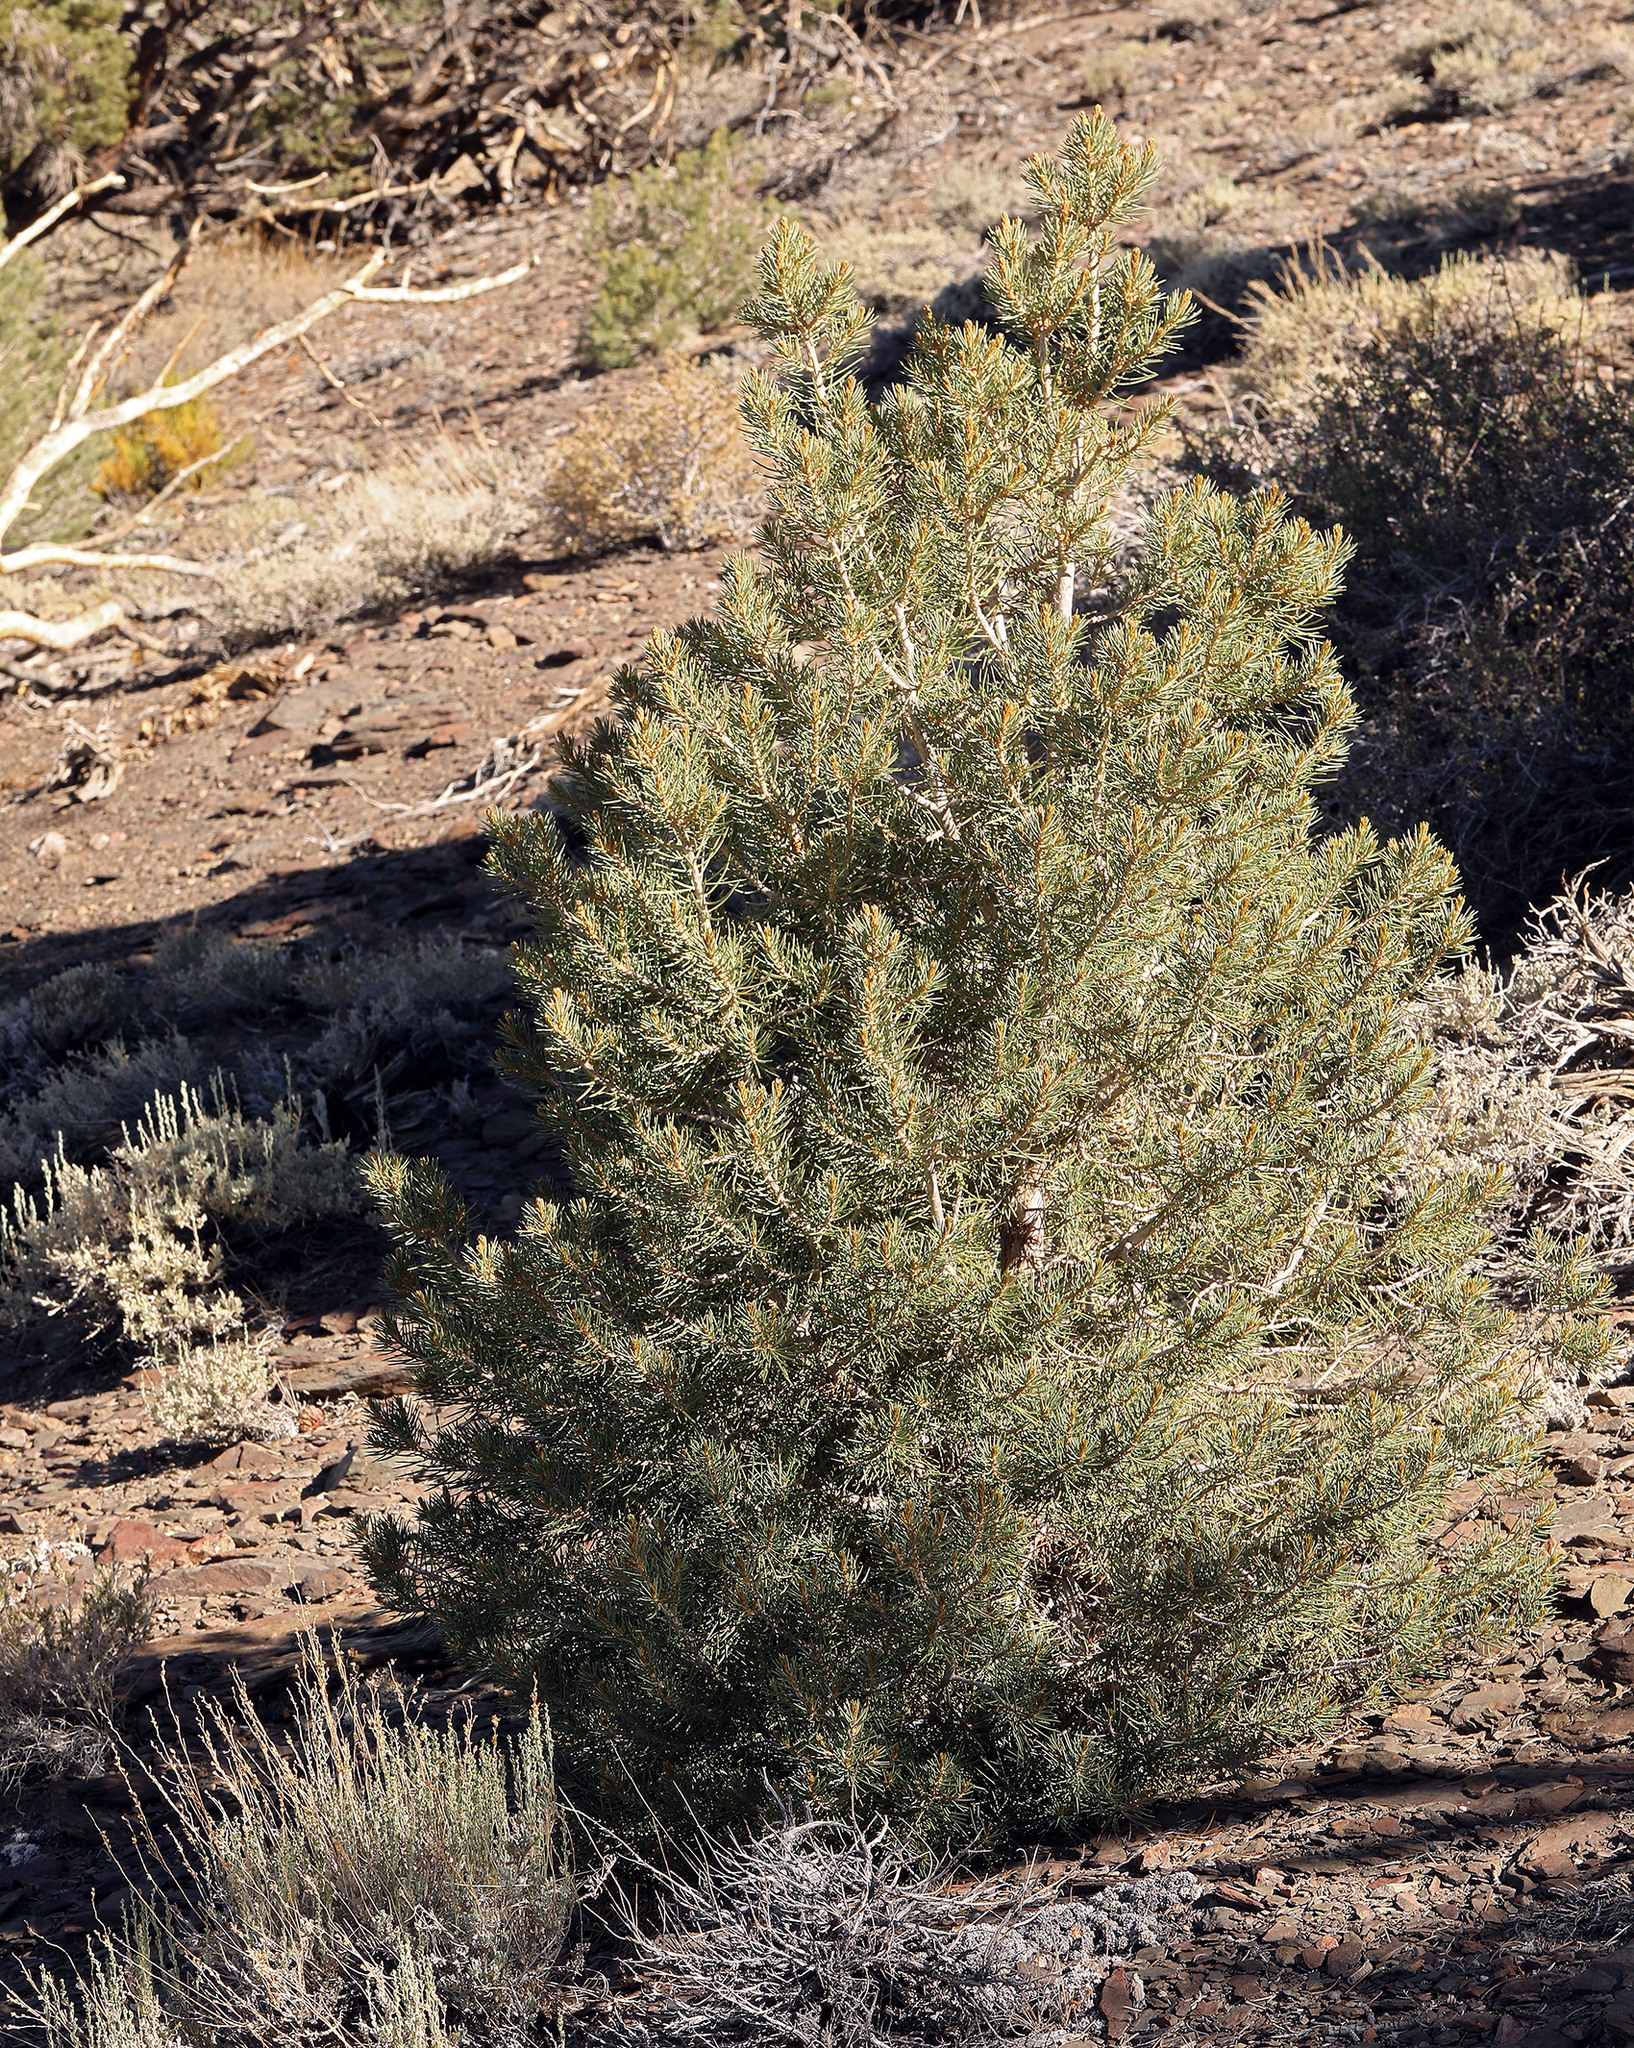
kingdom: Plantae
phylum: Tracheophyta
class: Pinopsida
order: Pinales
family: Pinaceae
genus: Pinus
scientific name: Pinus monophylla
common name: One-leaved nut pine
